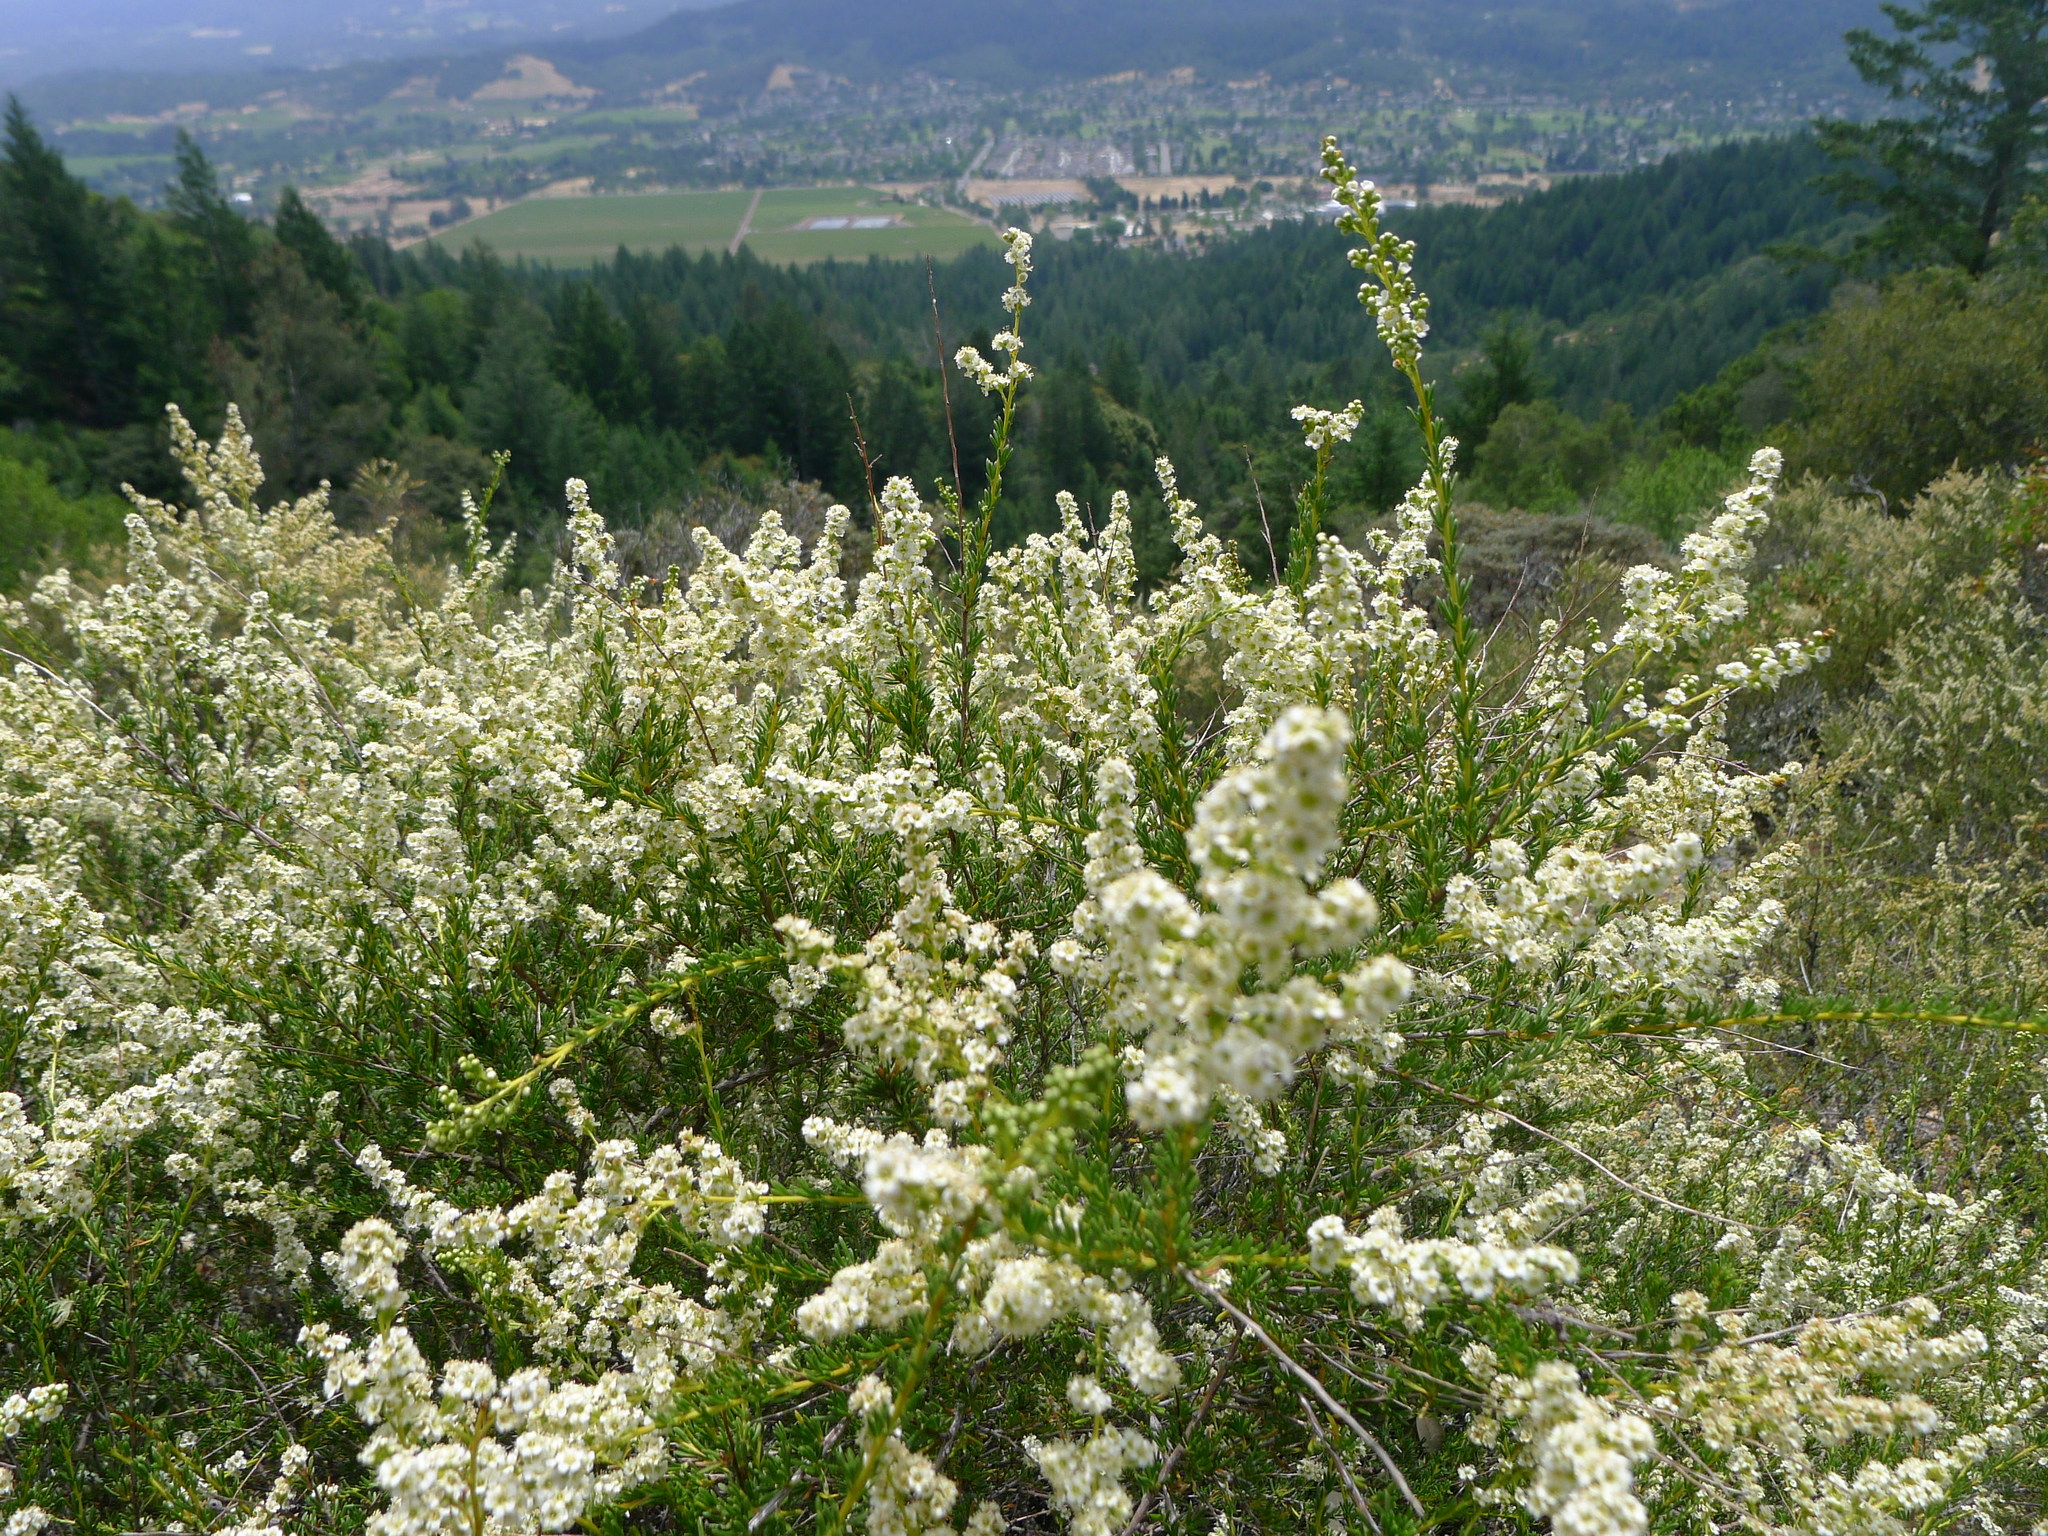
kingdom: Plantae
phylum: Tracheophyta
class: Magnoliopsida
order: Rosales
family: Rosaceae
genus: Adenostoma
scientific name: Adenostoma fasciculatum
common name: Chamise
